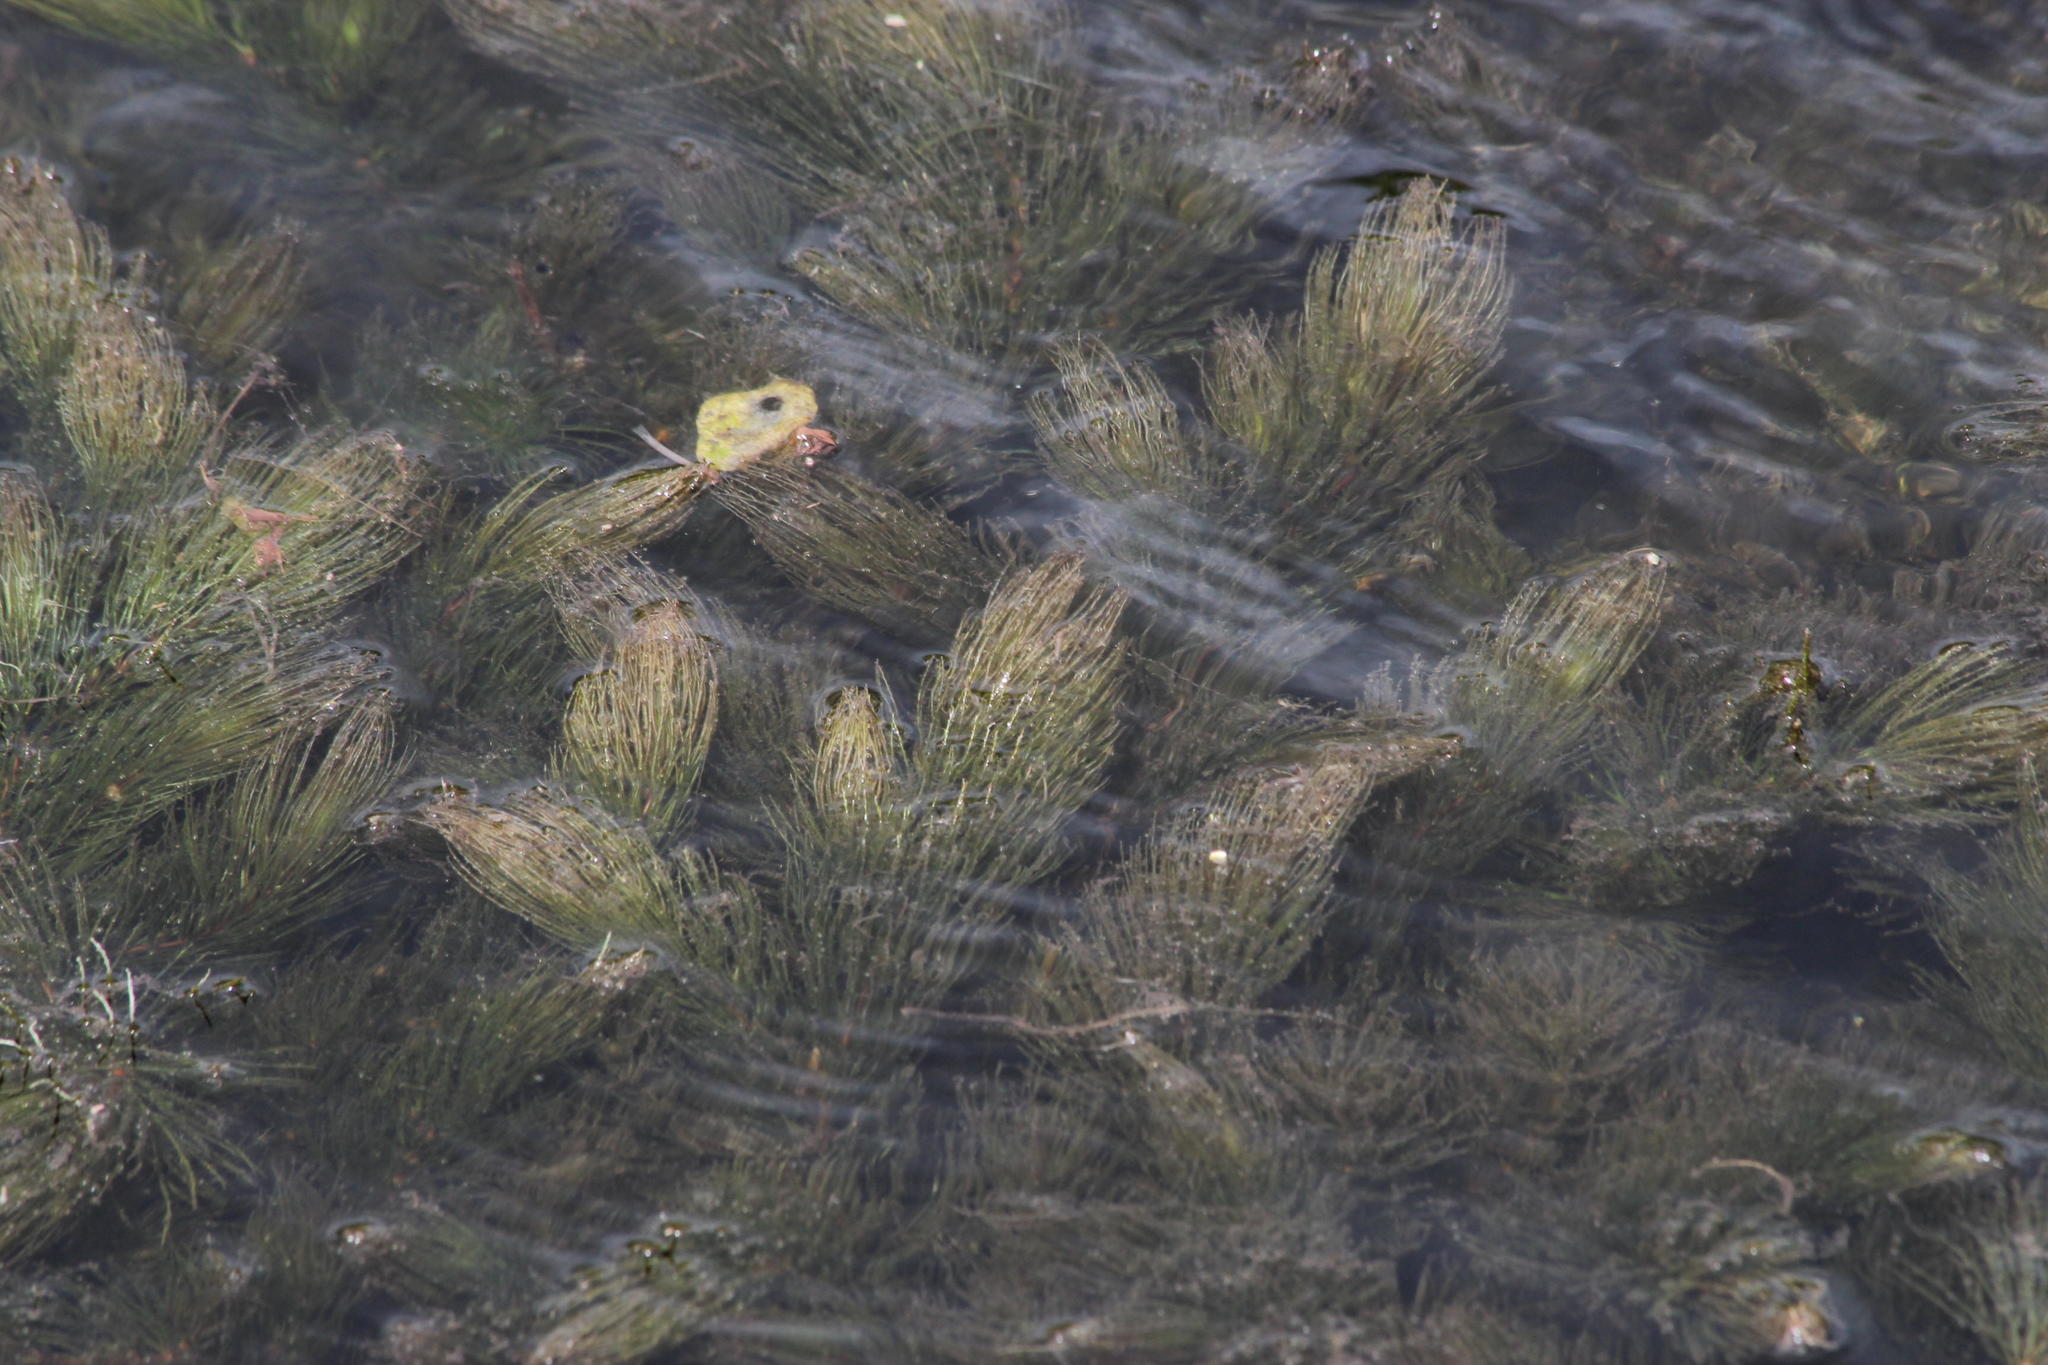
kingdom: Plantae
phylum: Tracheophyta
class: Magnoliopsida
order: Saxifragales
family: Haloragaceae
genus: Myriophyllum
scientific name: Myriophyllum aquaticum
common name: Parrot's feather
